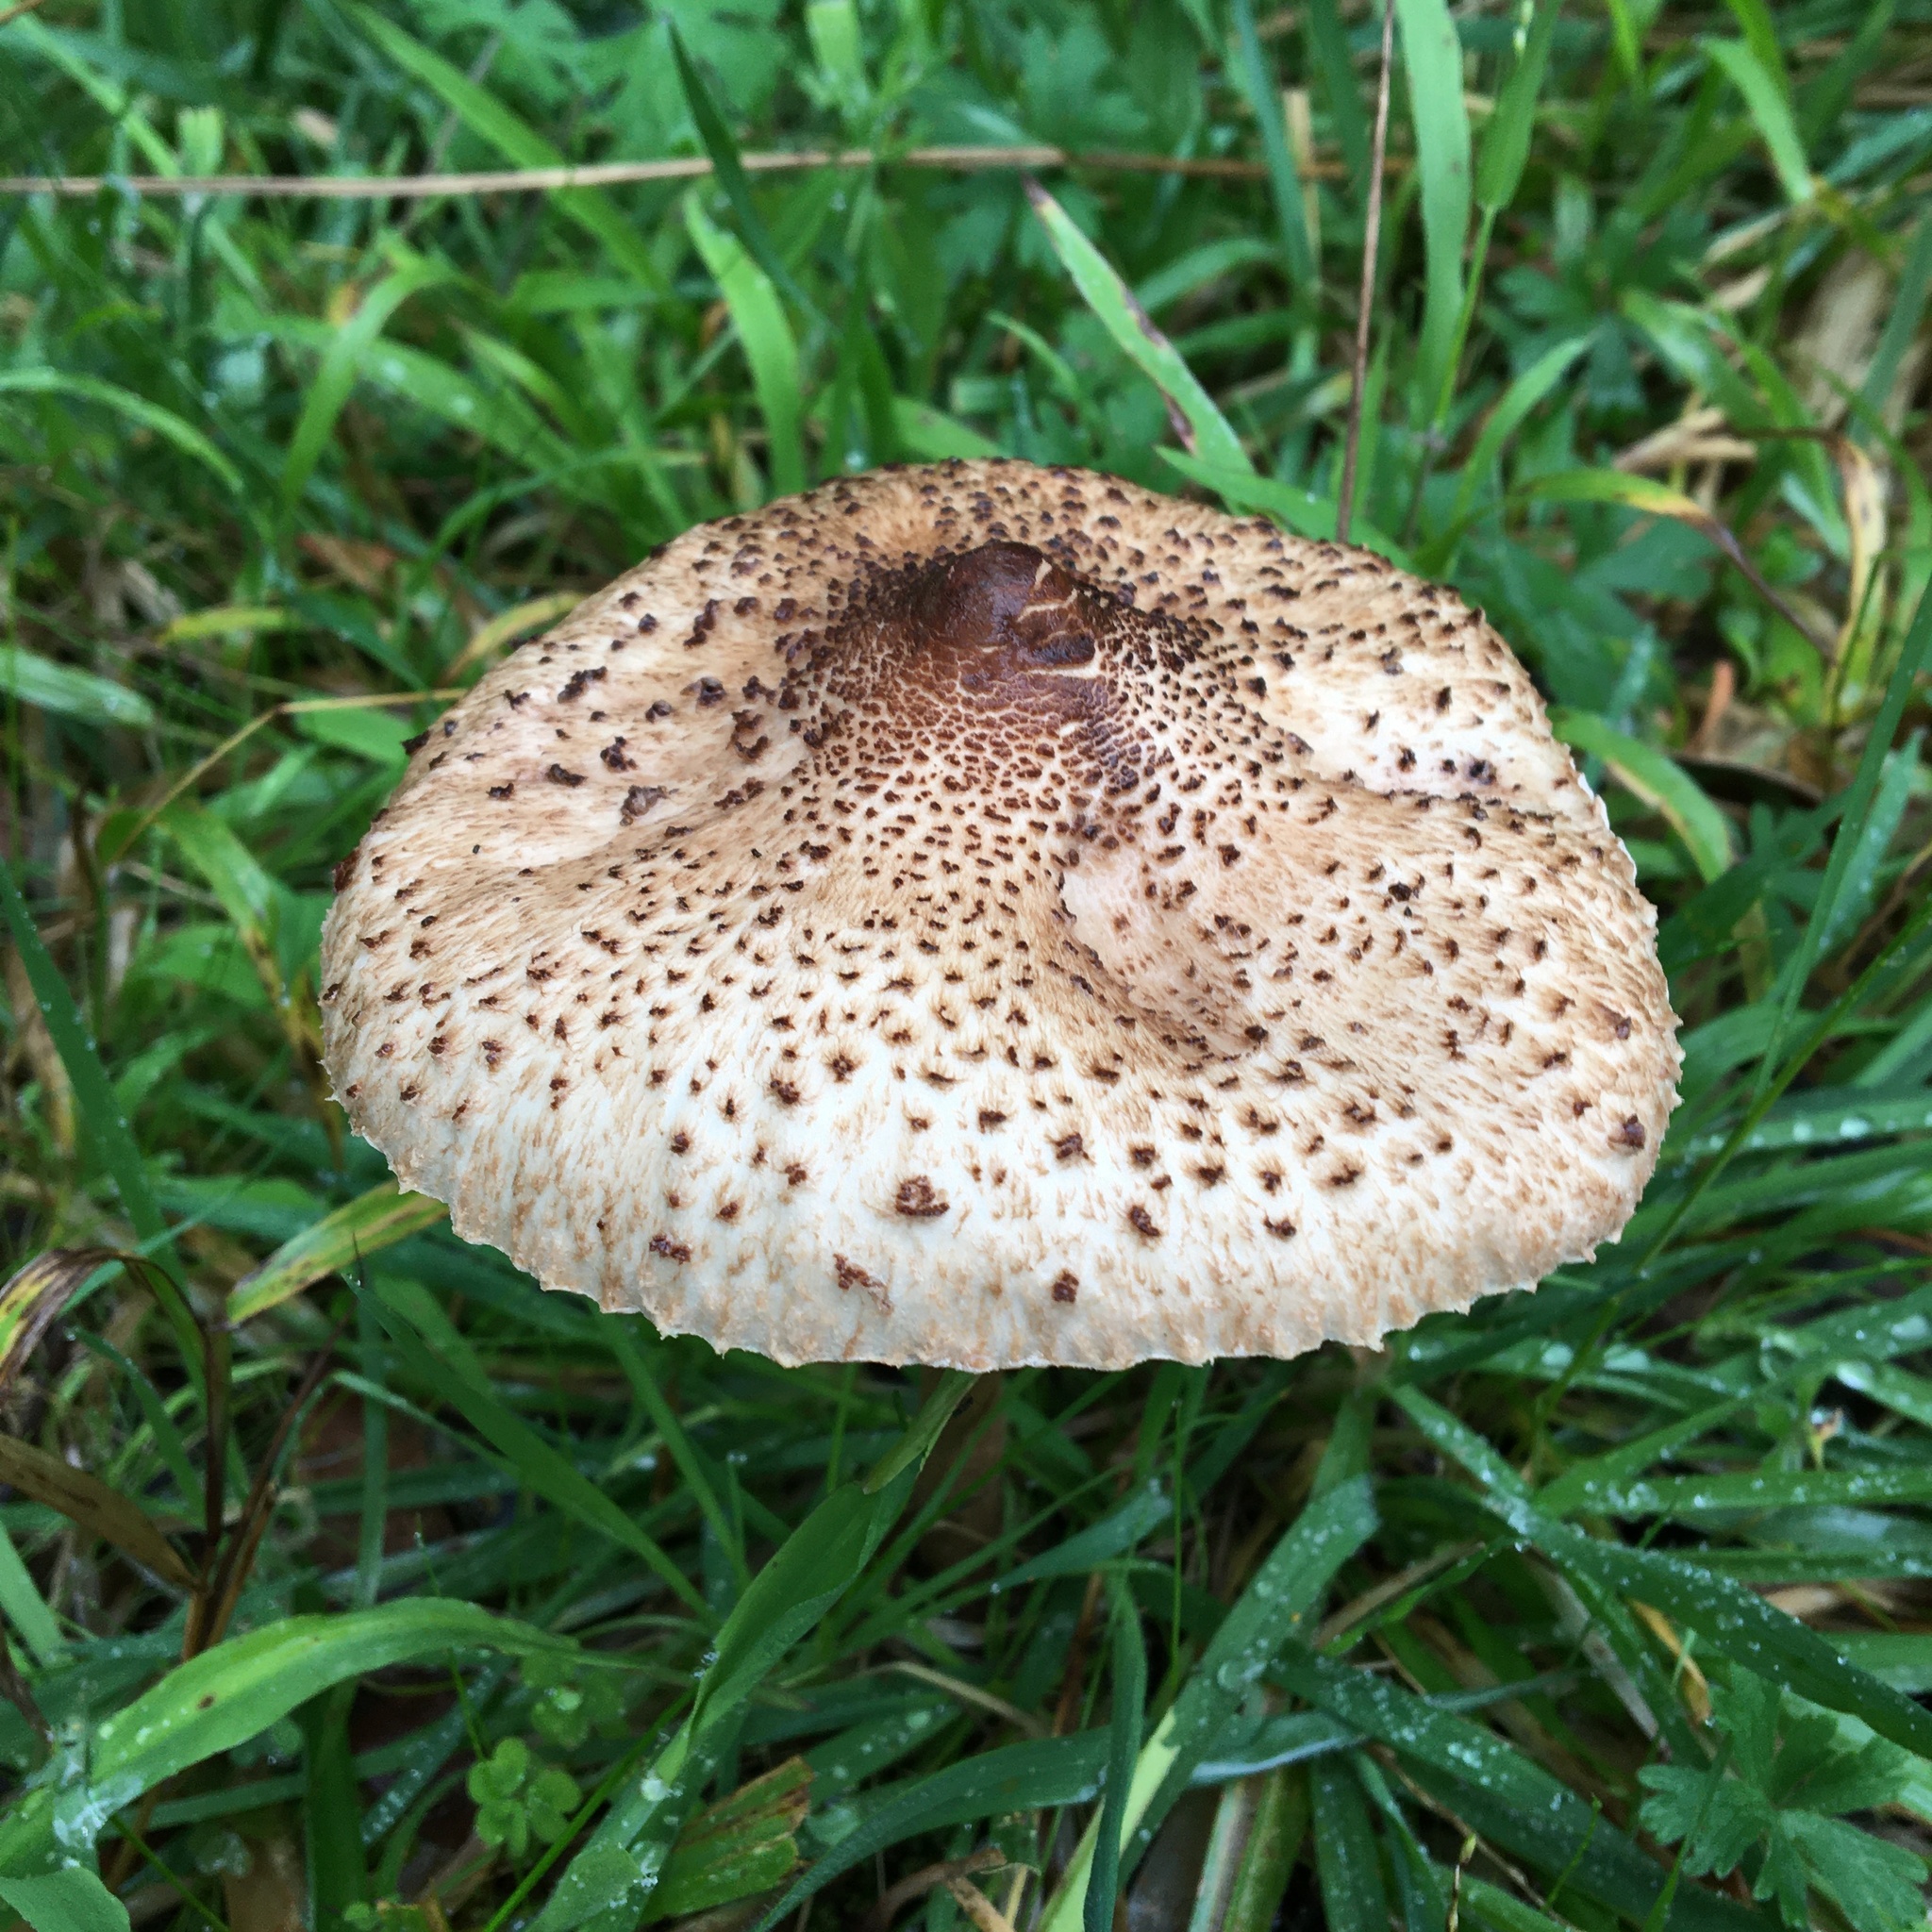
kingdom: Fungi
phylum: Basidiomycota
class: Agaricomycetes
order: Agaricales
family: Agaricaceae
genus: Macrolepiota
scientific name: Macrolepiota clelandii
